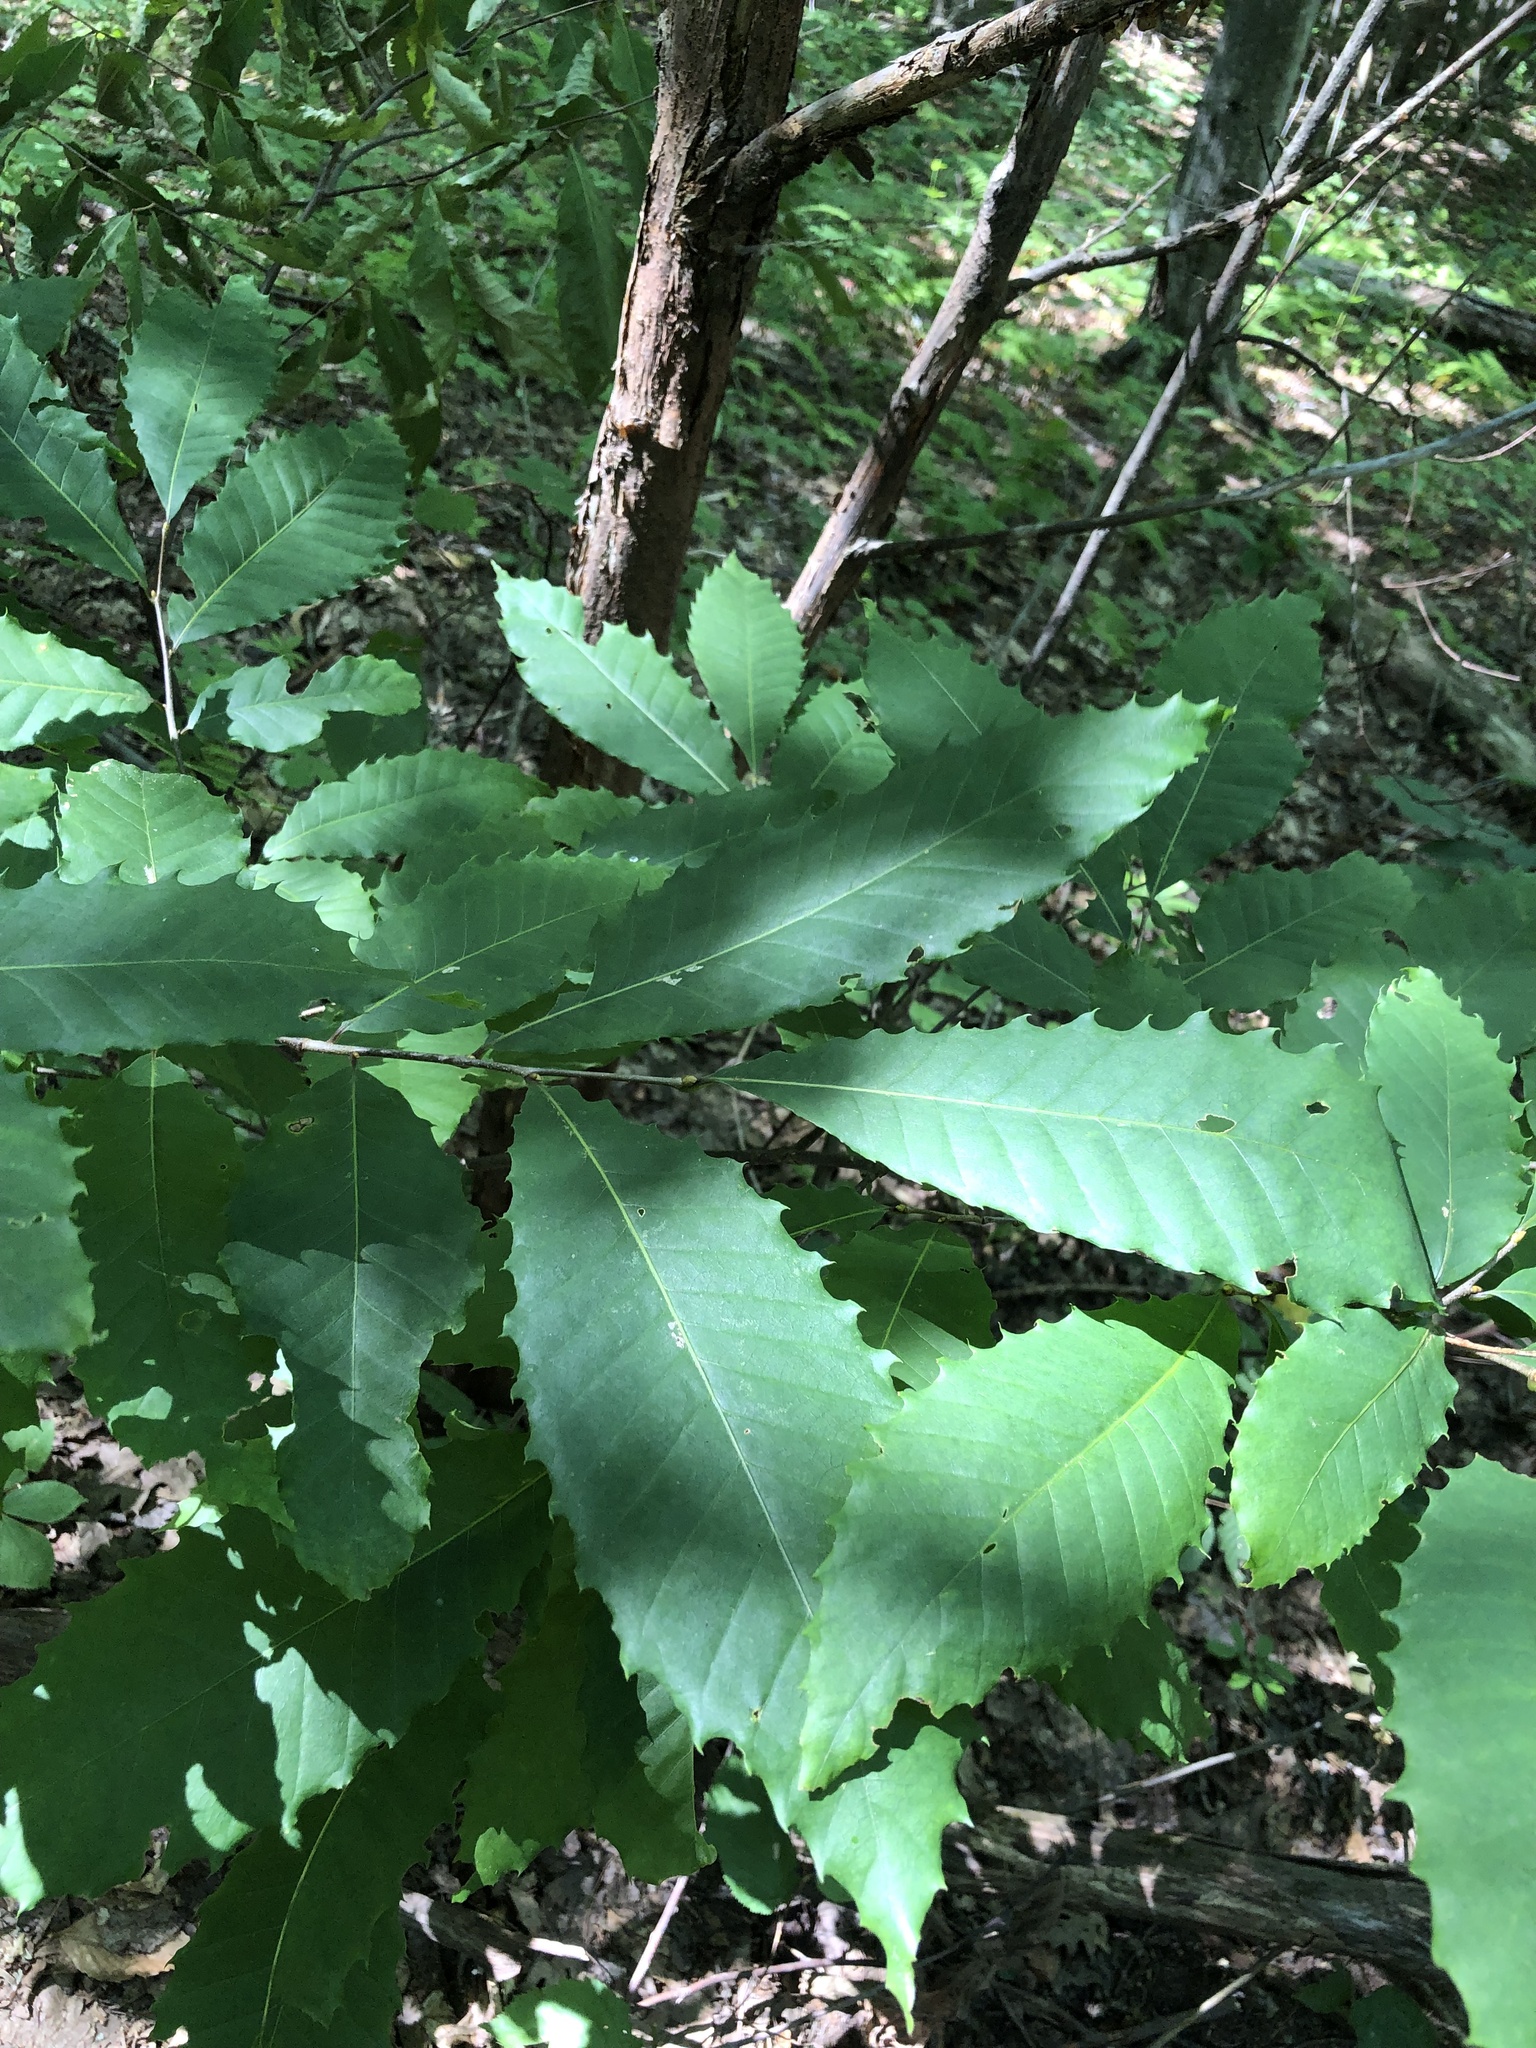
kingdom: Plantae
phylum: Tracheophyta
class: Magnoliopsida
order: Fagales
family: Fagaceae
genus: Castanea
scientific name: Castanea dentata
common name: American chestnut
